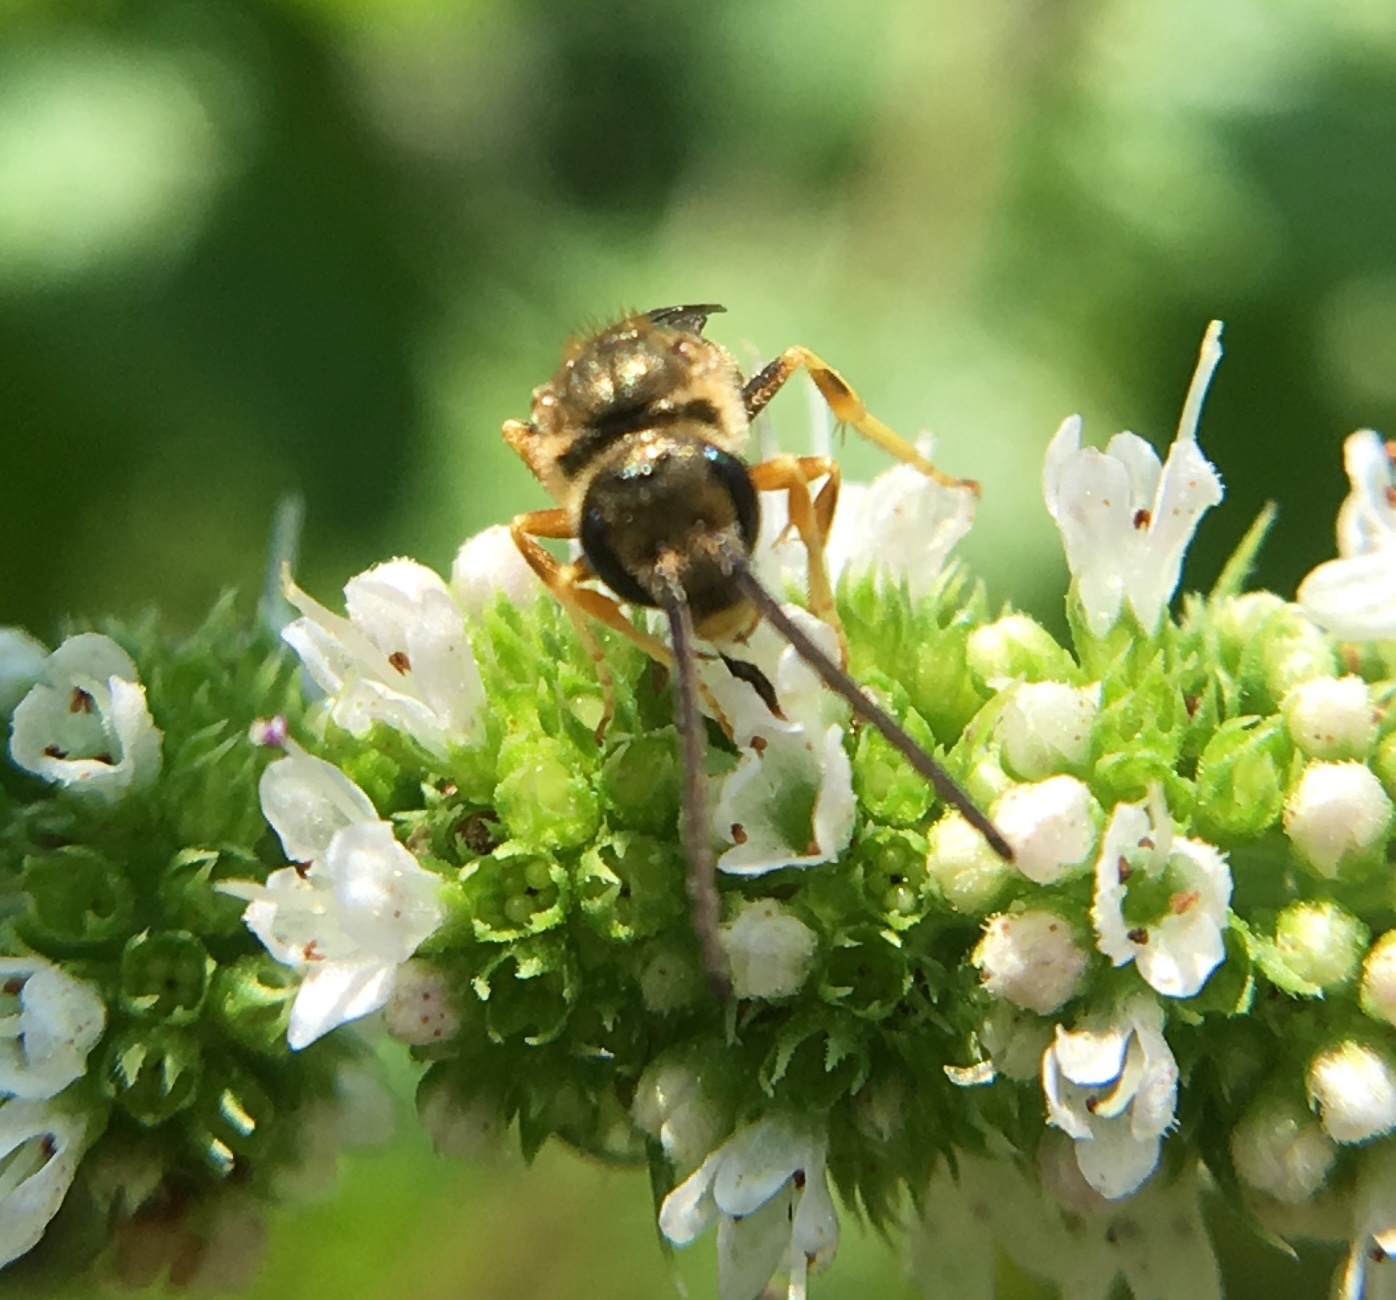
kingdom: Animalia
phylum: Arthropoda
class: Insecta
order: Hymenoptera
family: Halictidae
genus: Halictus
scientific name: Halictus ligatus
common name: Ligated furrow bee
